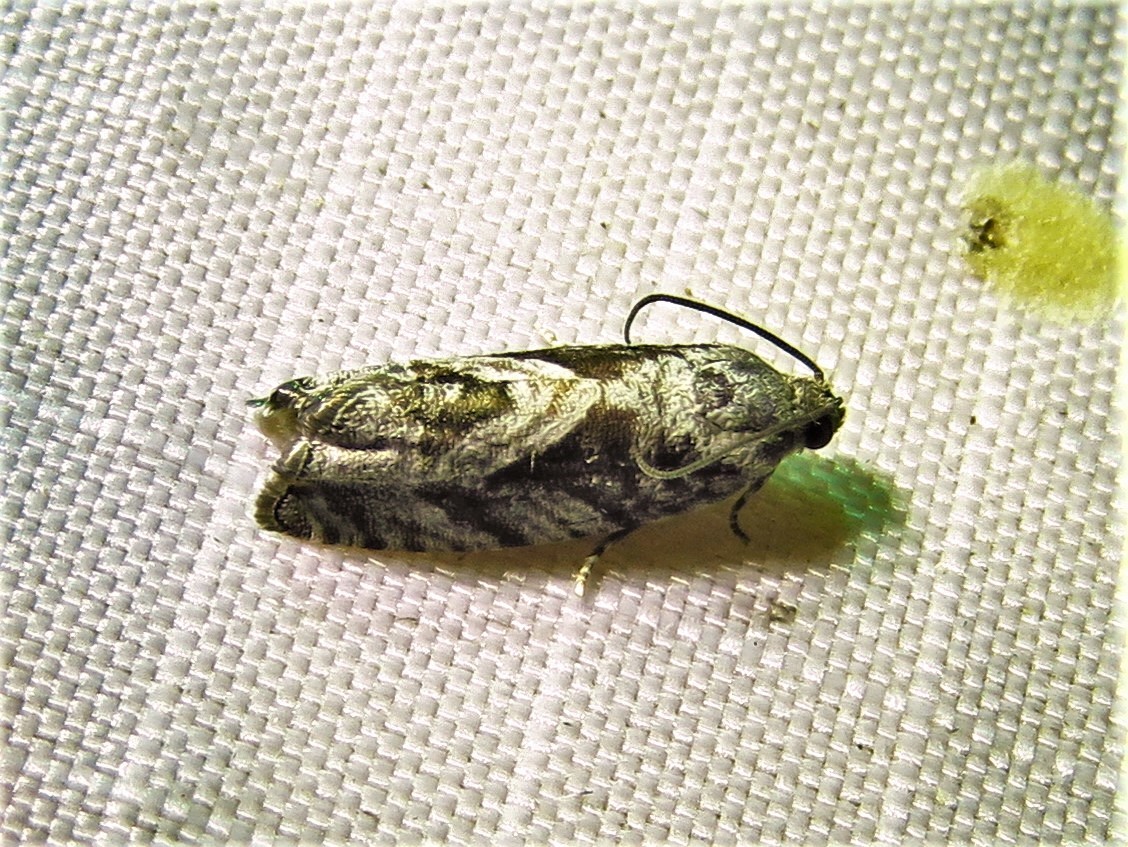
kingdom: Animalia
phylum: Arthropoda
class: Insecta
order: Lepidoptera
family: Tortricidae
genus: Cydia
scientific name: Cydia lacustrina
